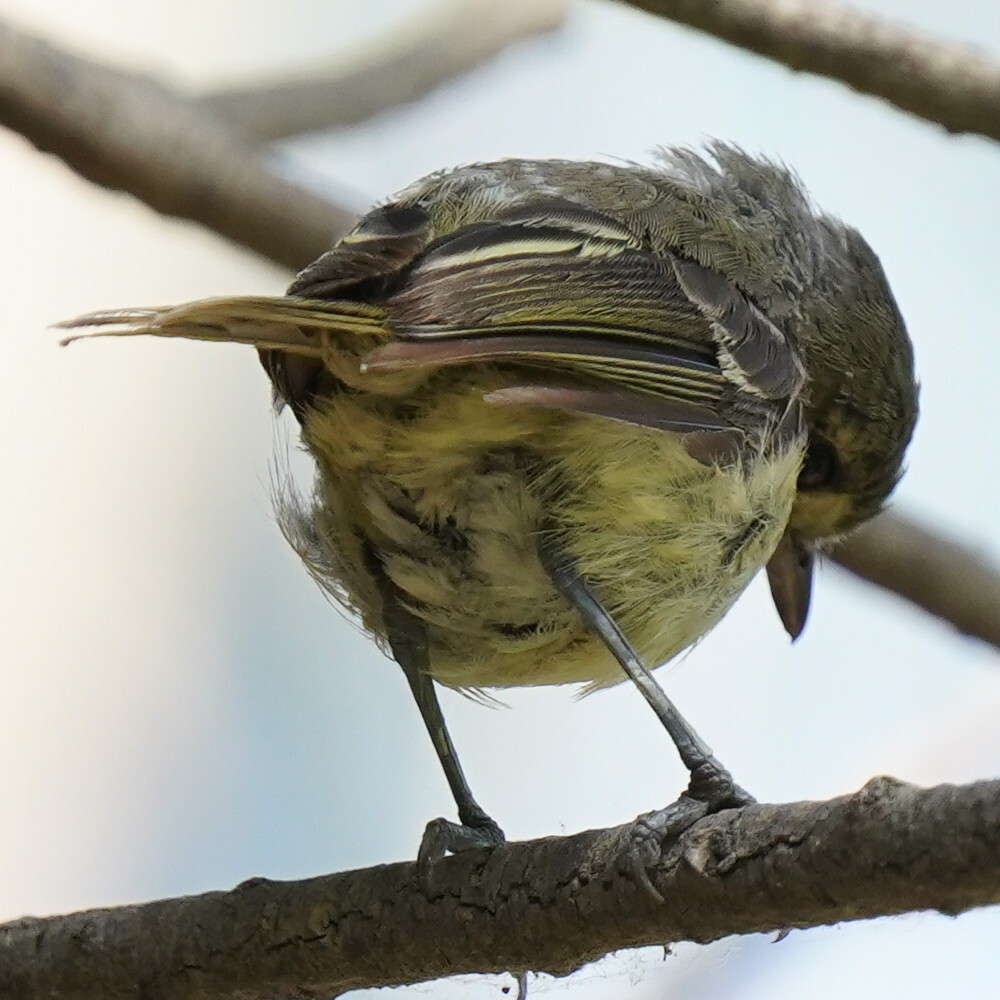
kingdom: Animalia
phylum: Chordata
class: Aves
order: Passeriformes
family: Vireonidae
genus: Vireo
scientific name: Vireo huttoni
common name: Hutton's vireo
